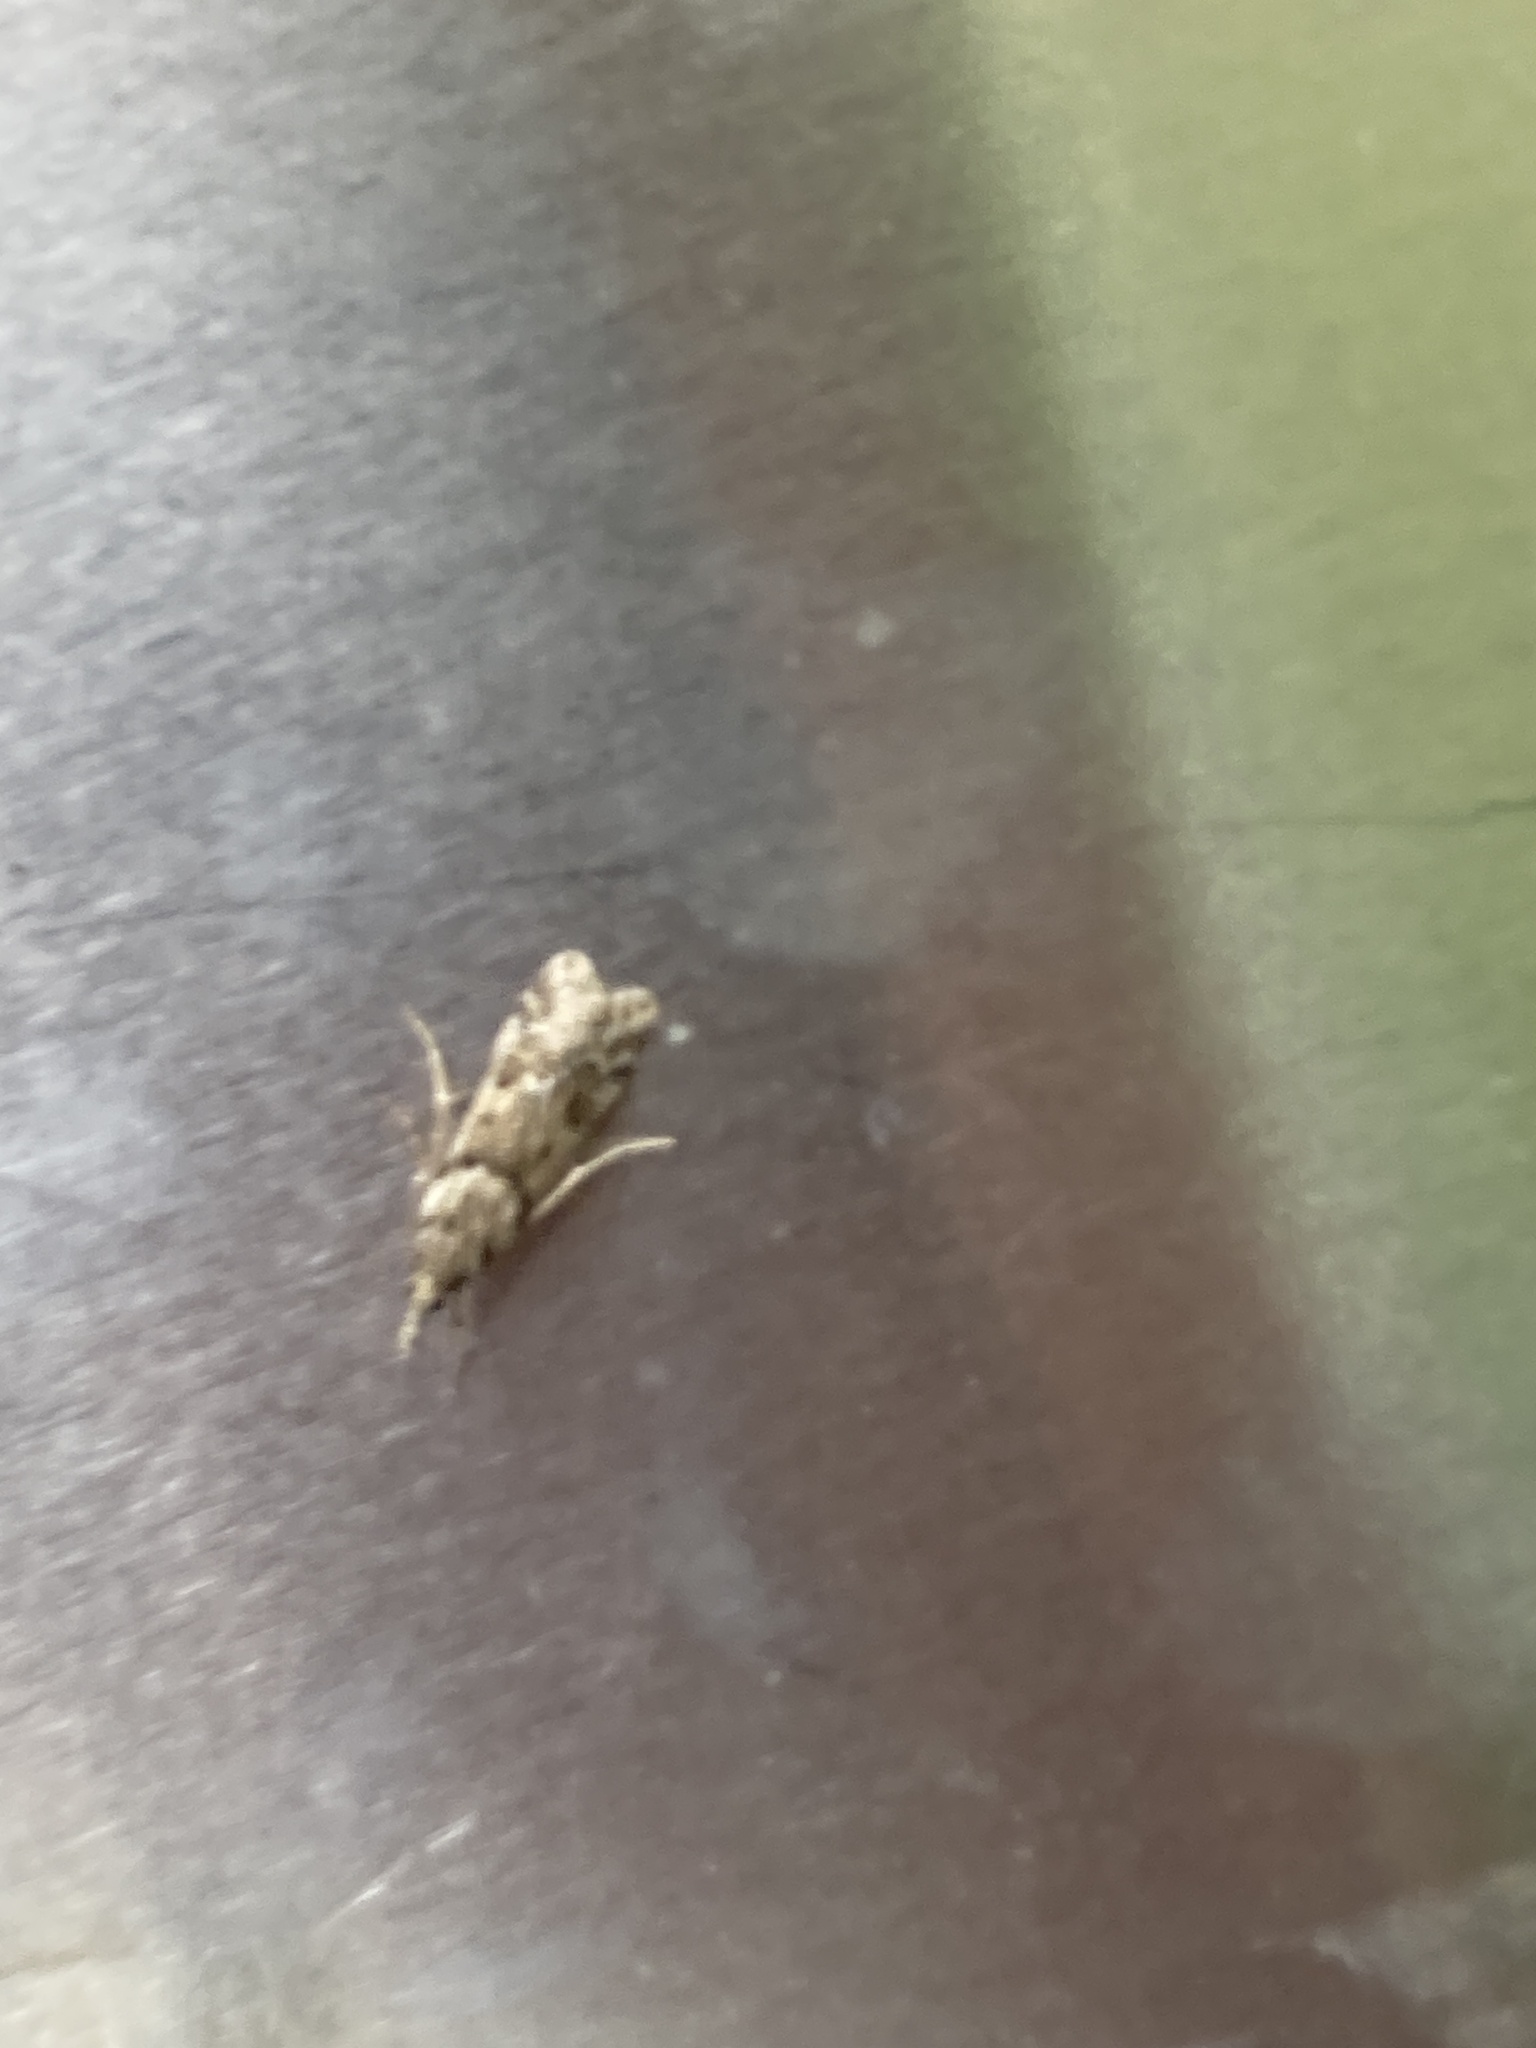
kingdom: Animalia
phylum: Arthropoda
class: Insecta
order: Lepidoptera
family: Crambidae
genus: Eudonia
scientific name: Eudonia angustea
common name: Narrow-winged grey
